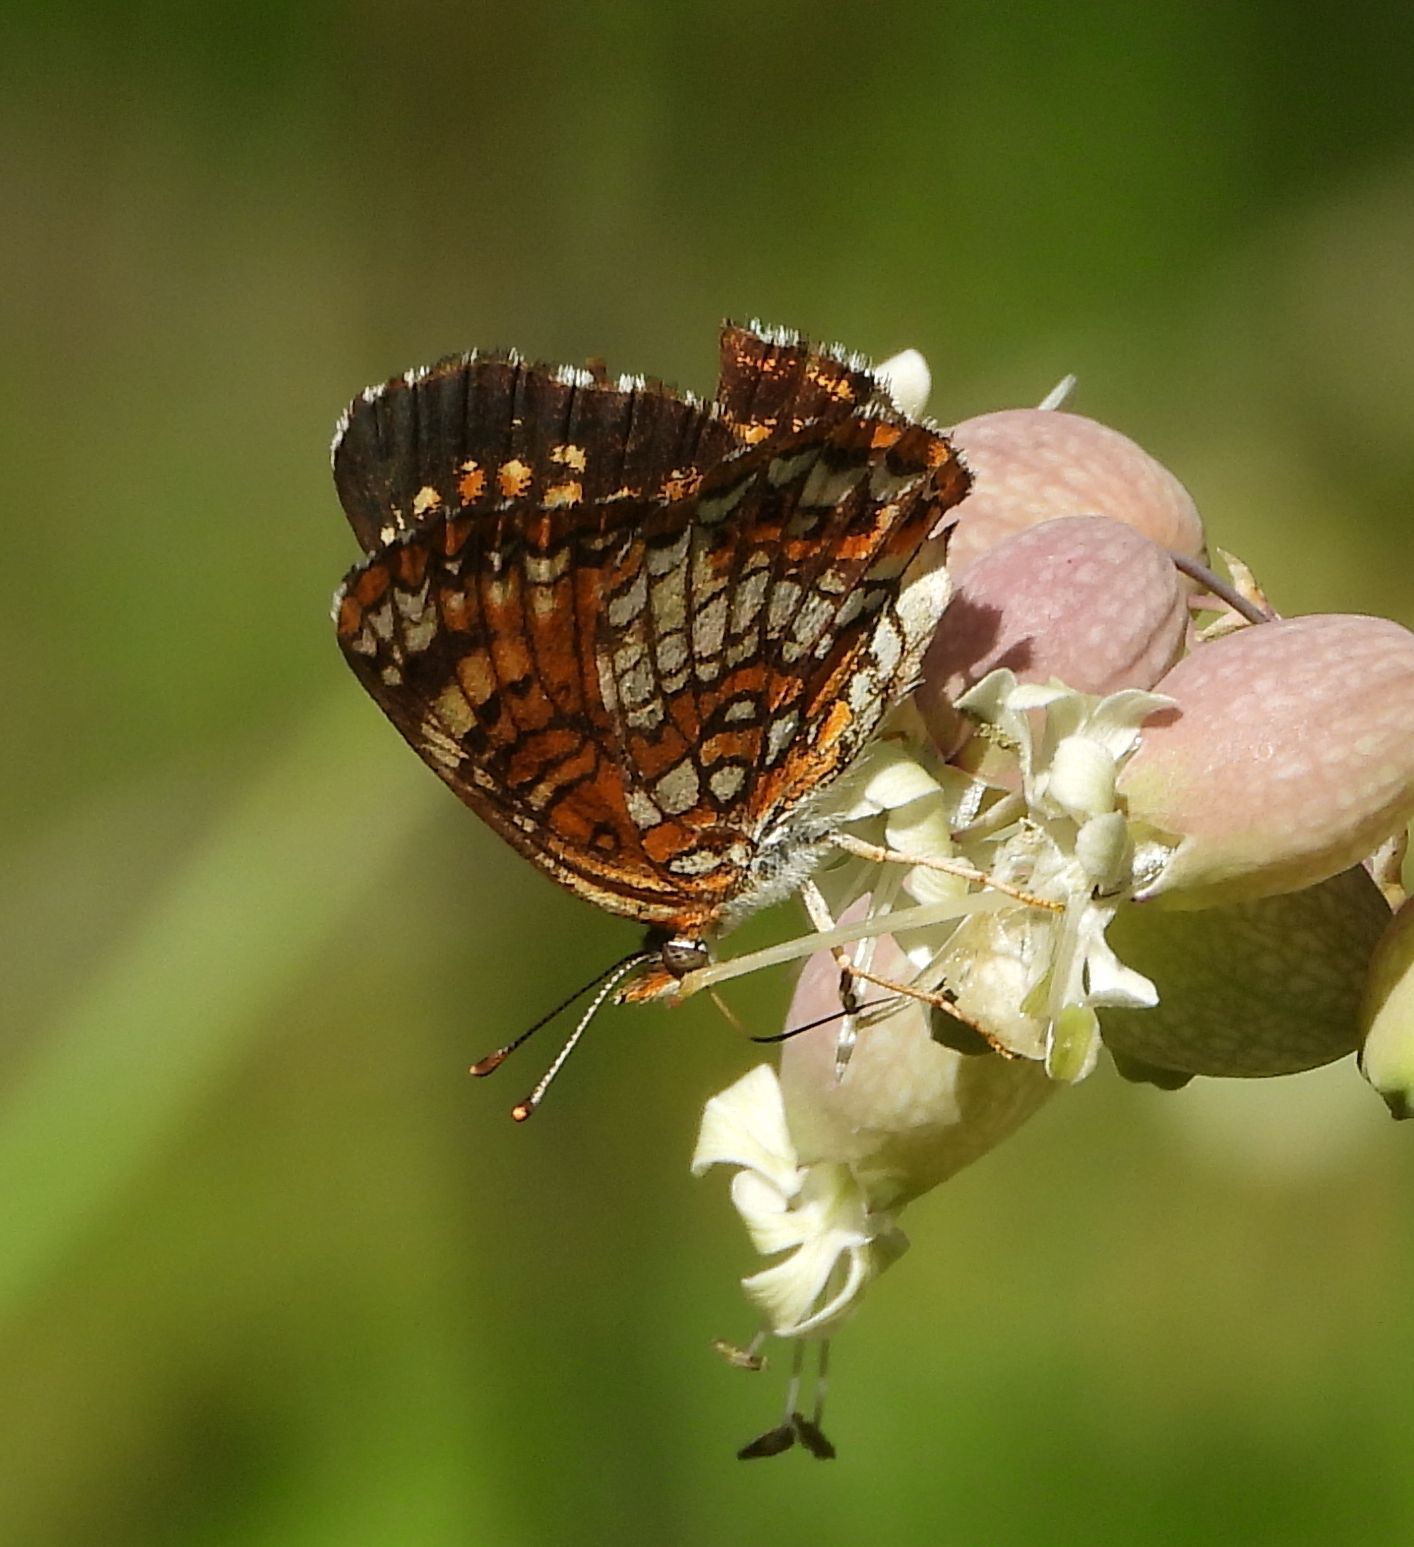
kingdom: Animalia
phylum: Arthropoda
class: Insecta
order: Lepidoptera
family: Nymphalidae
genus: Chlosyne
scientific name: Chlosyne harrisii
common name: Harris's checkerspot
